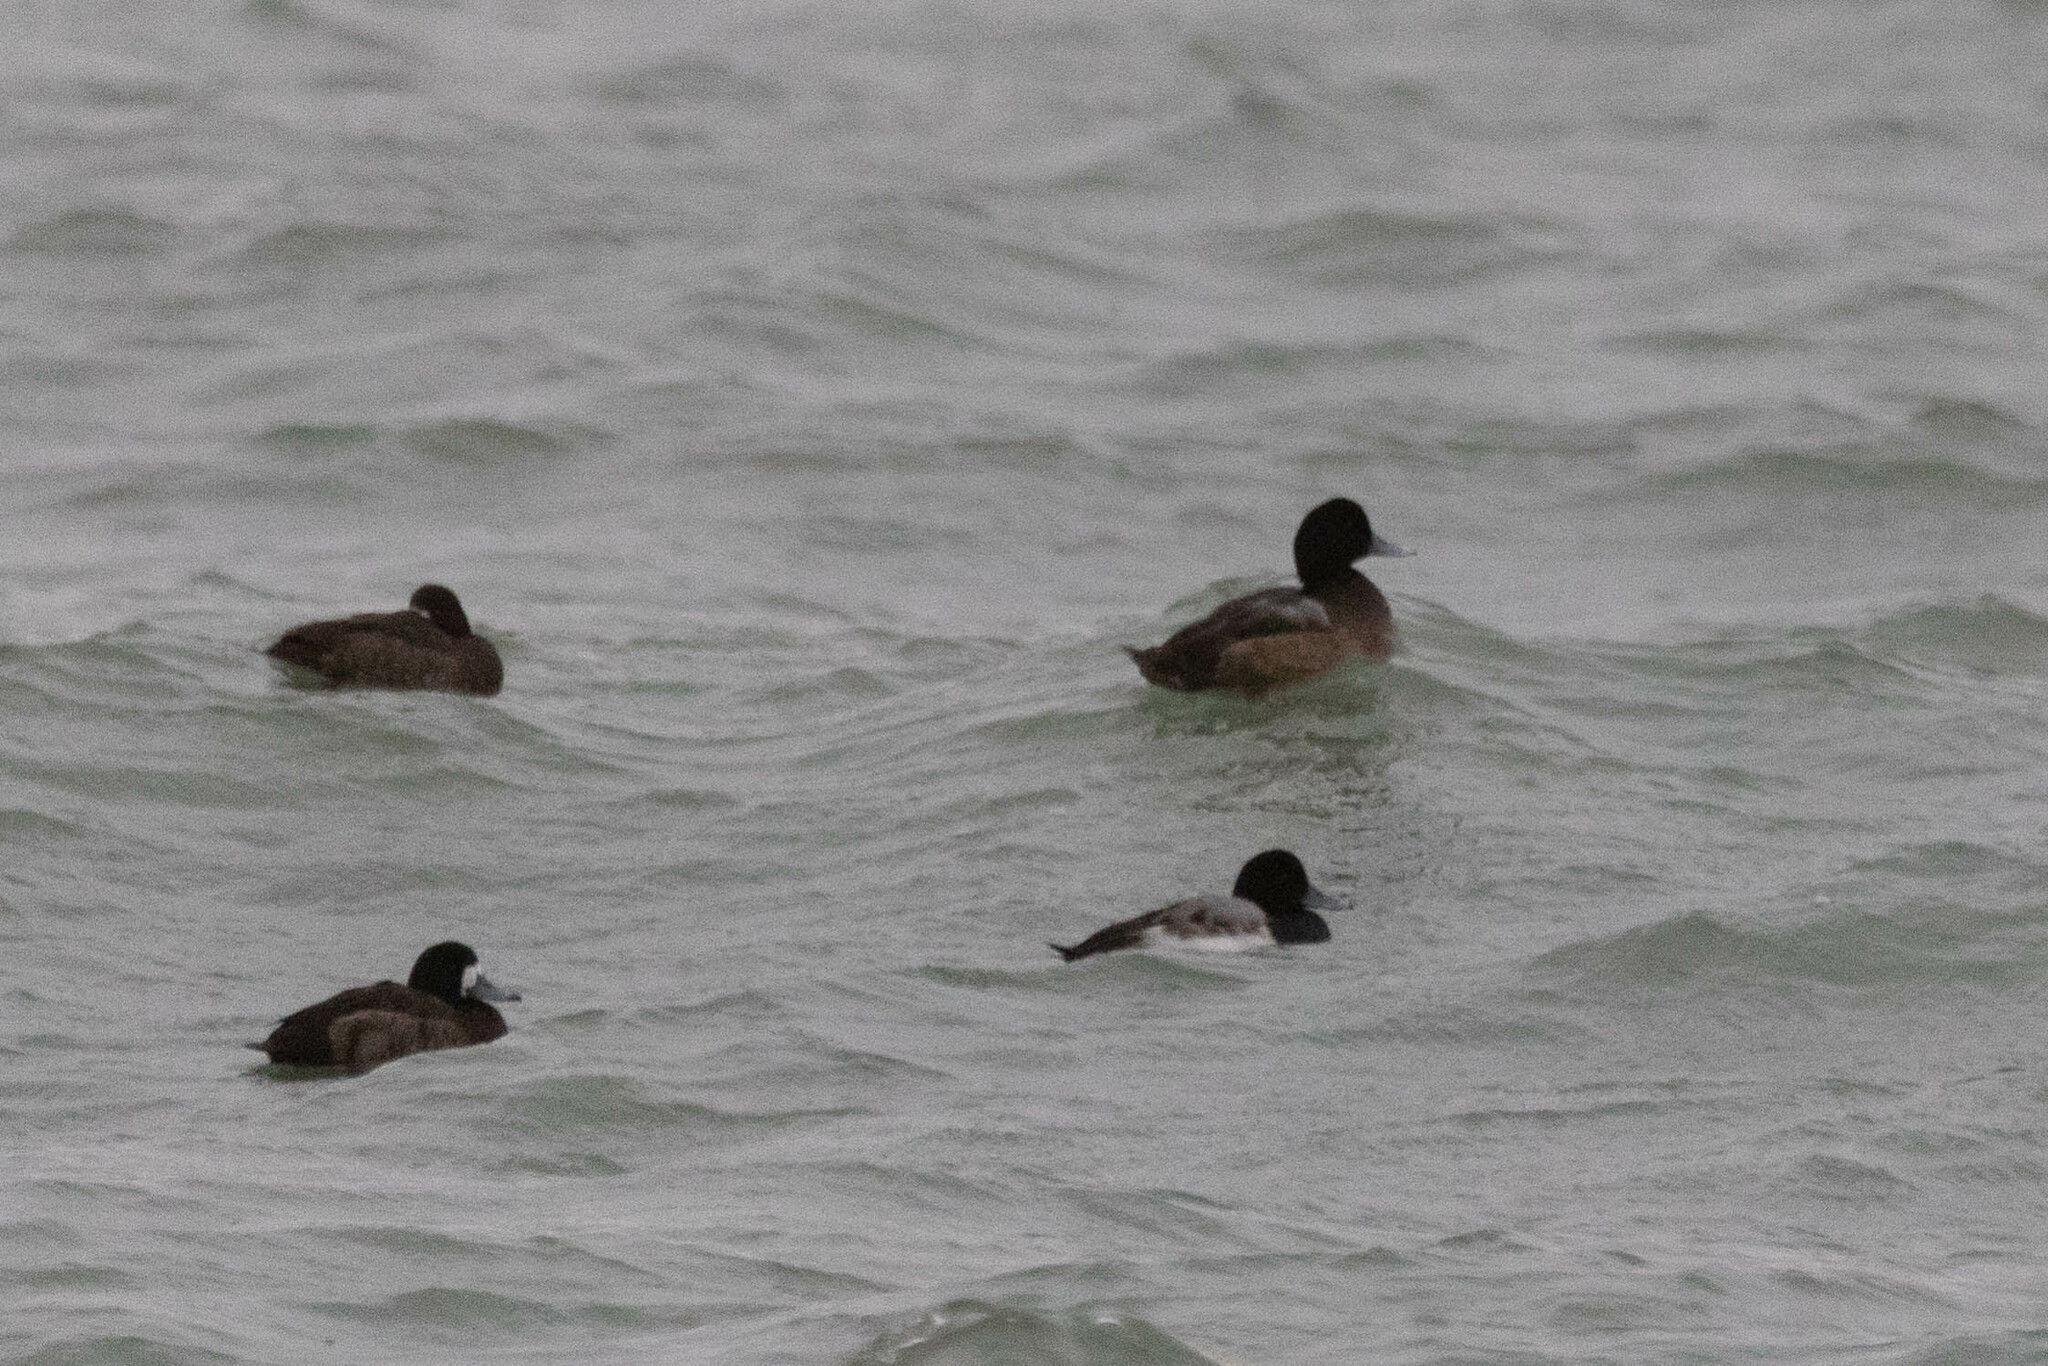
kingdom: Animalia
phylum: Chordata
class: Aves
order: Anseriformes
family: Anatidae
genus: Aythya
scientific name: Aythya marila
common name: Greater scaup
